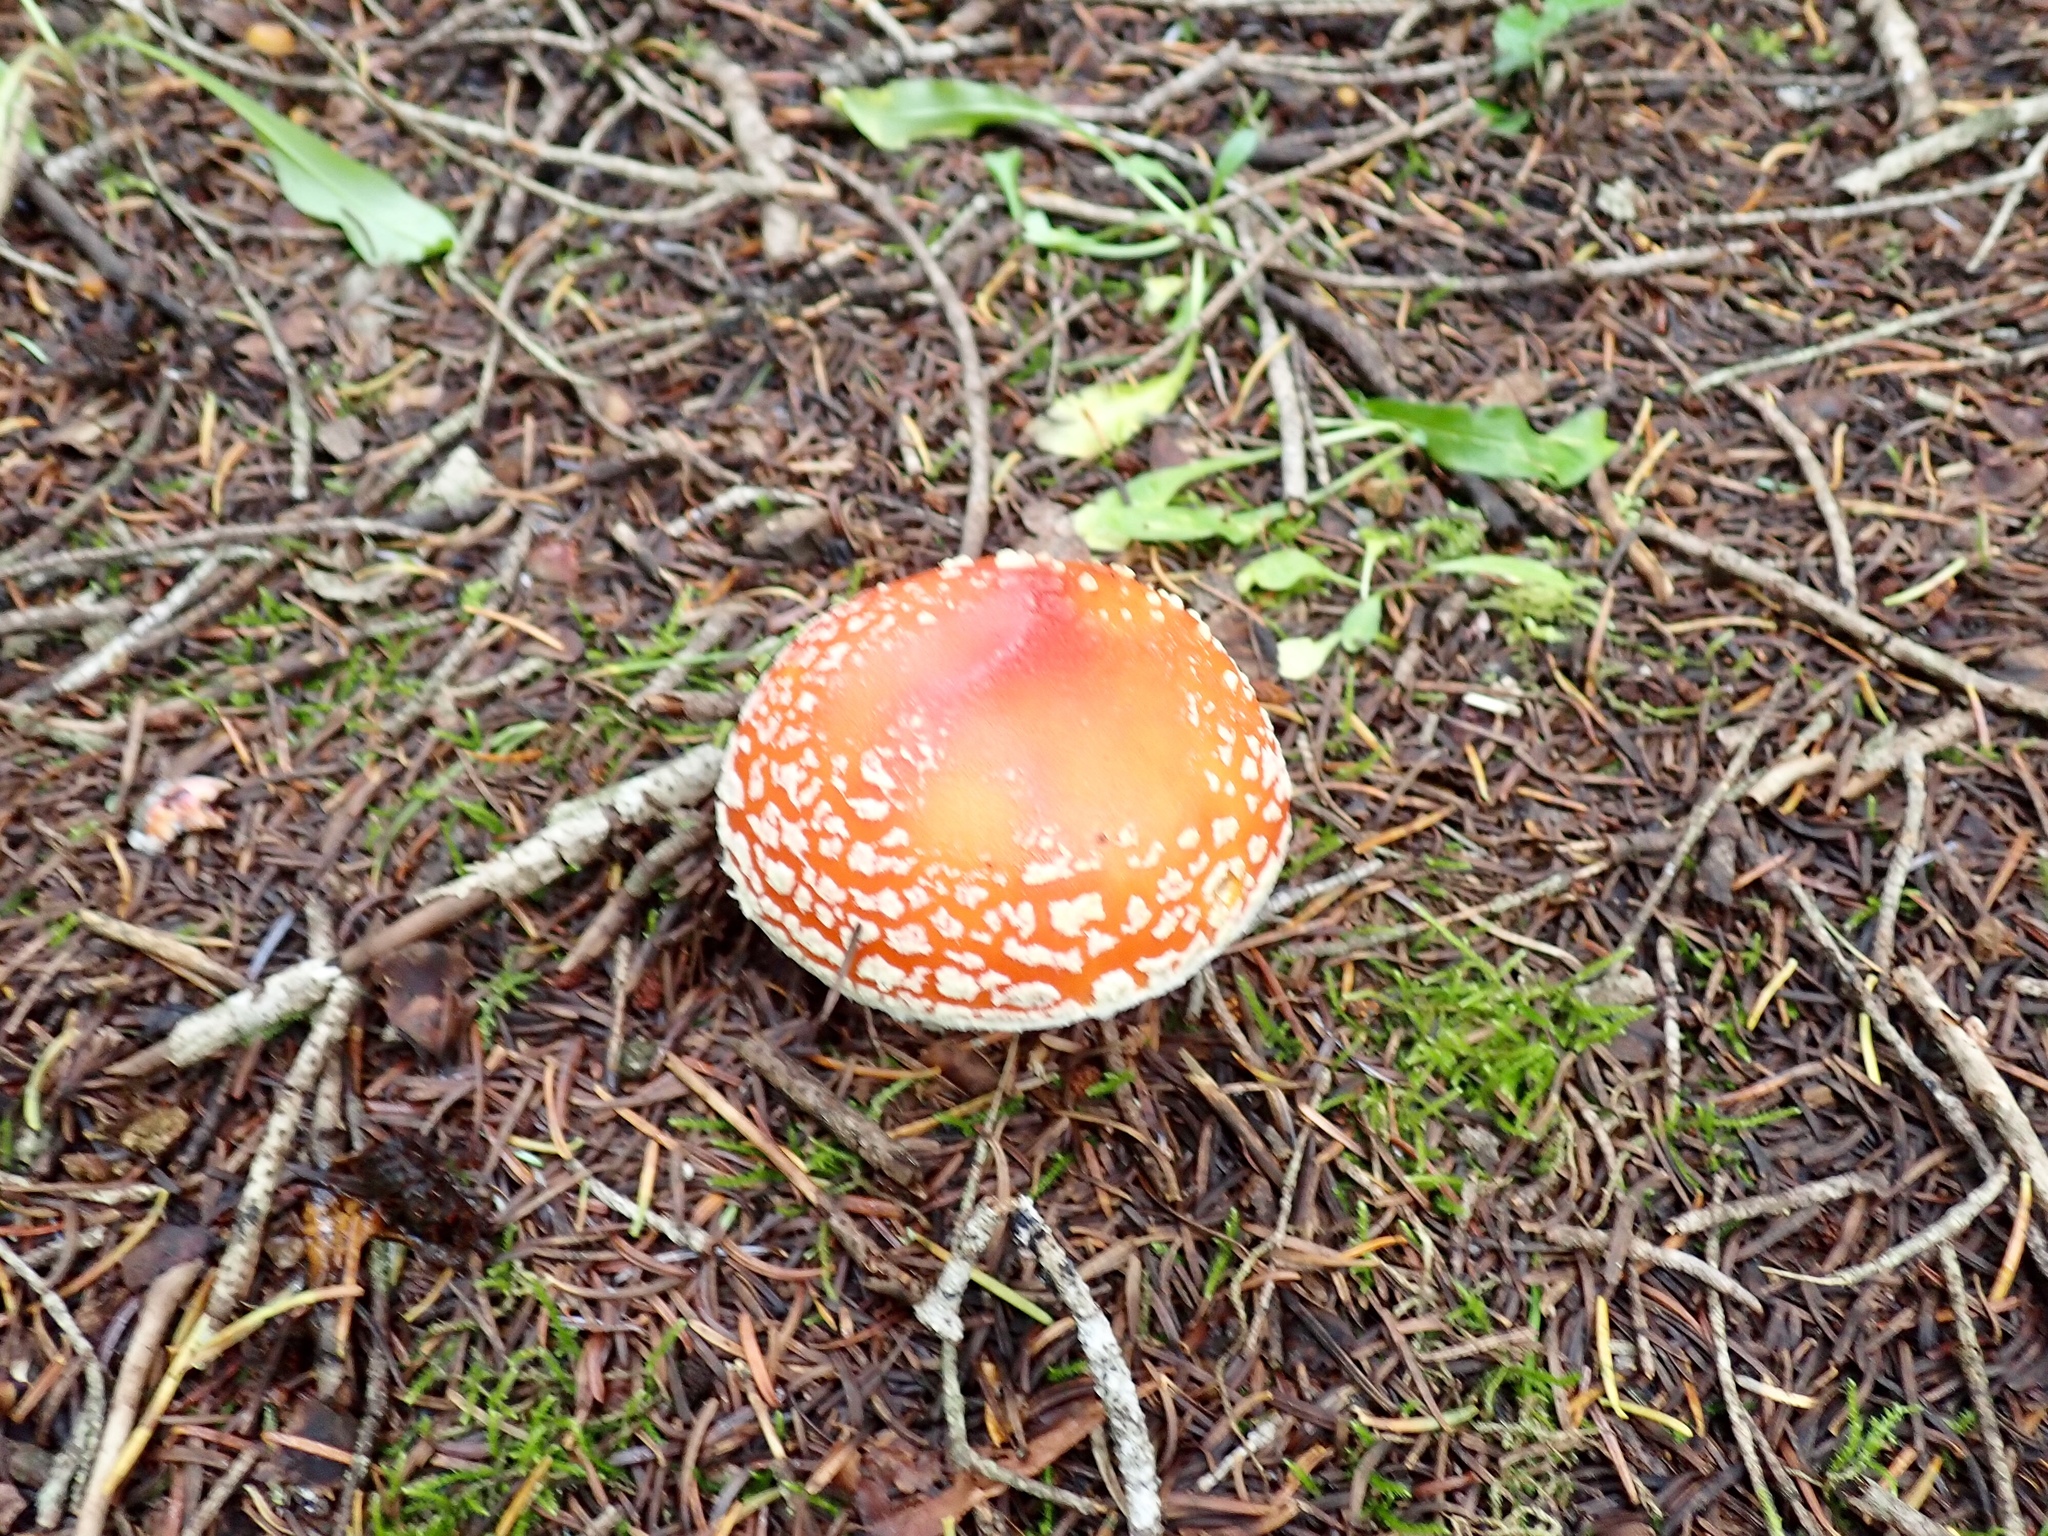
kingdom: Fungi
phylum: Basidiomycota
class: Agaricomycetes
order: Agaricales
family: Amanitaceae
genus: Amanita
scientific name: Amanita muscaria
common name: Fly agaric
